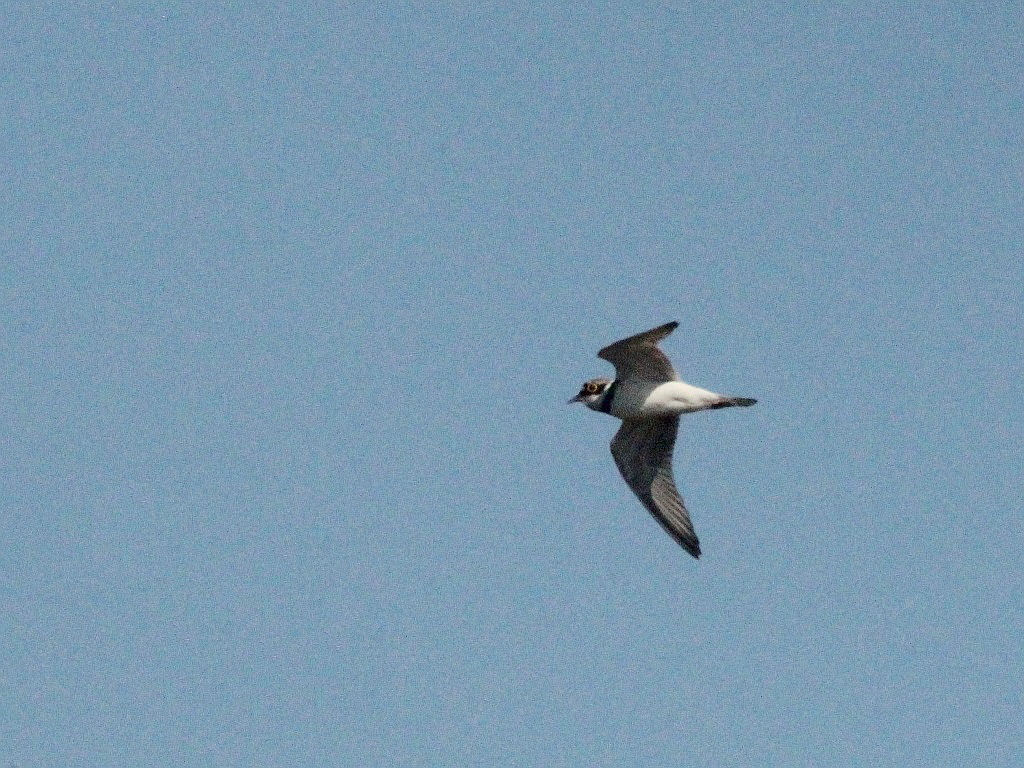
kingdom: Animalia
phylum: Chordata
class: Aves
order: Charadriiformes
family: Charadriidae
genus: Charadrius
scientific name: Charadrius dubius
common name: Little ringed plover
